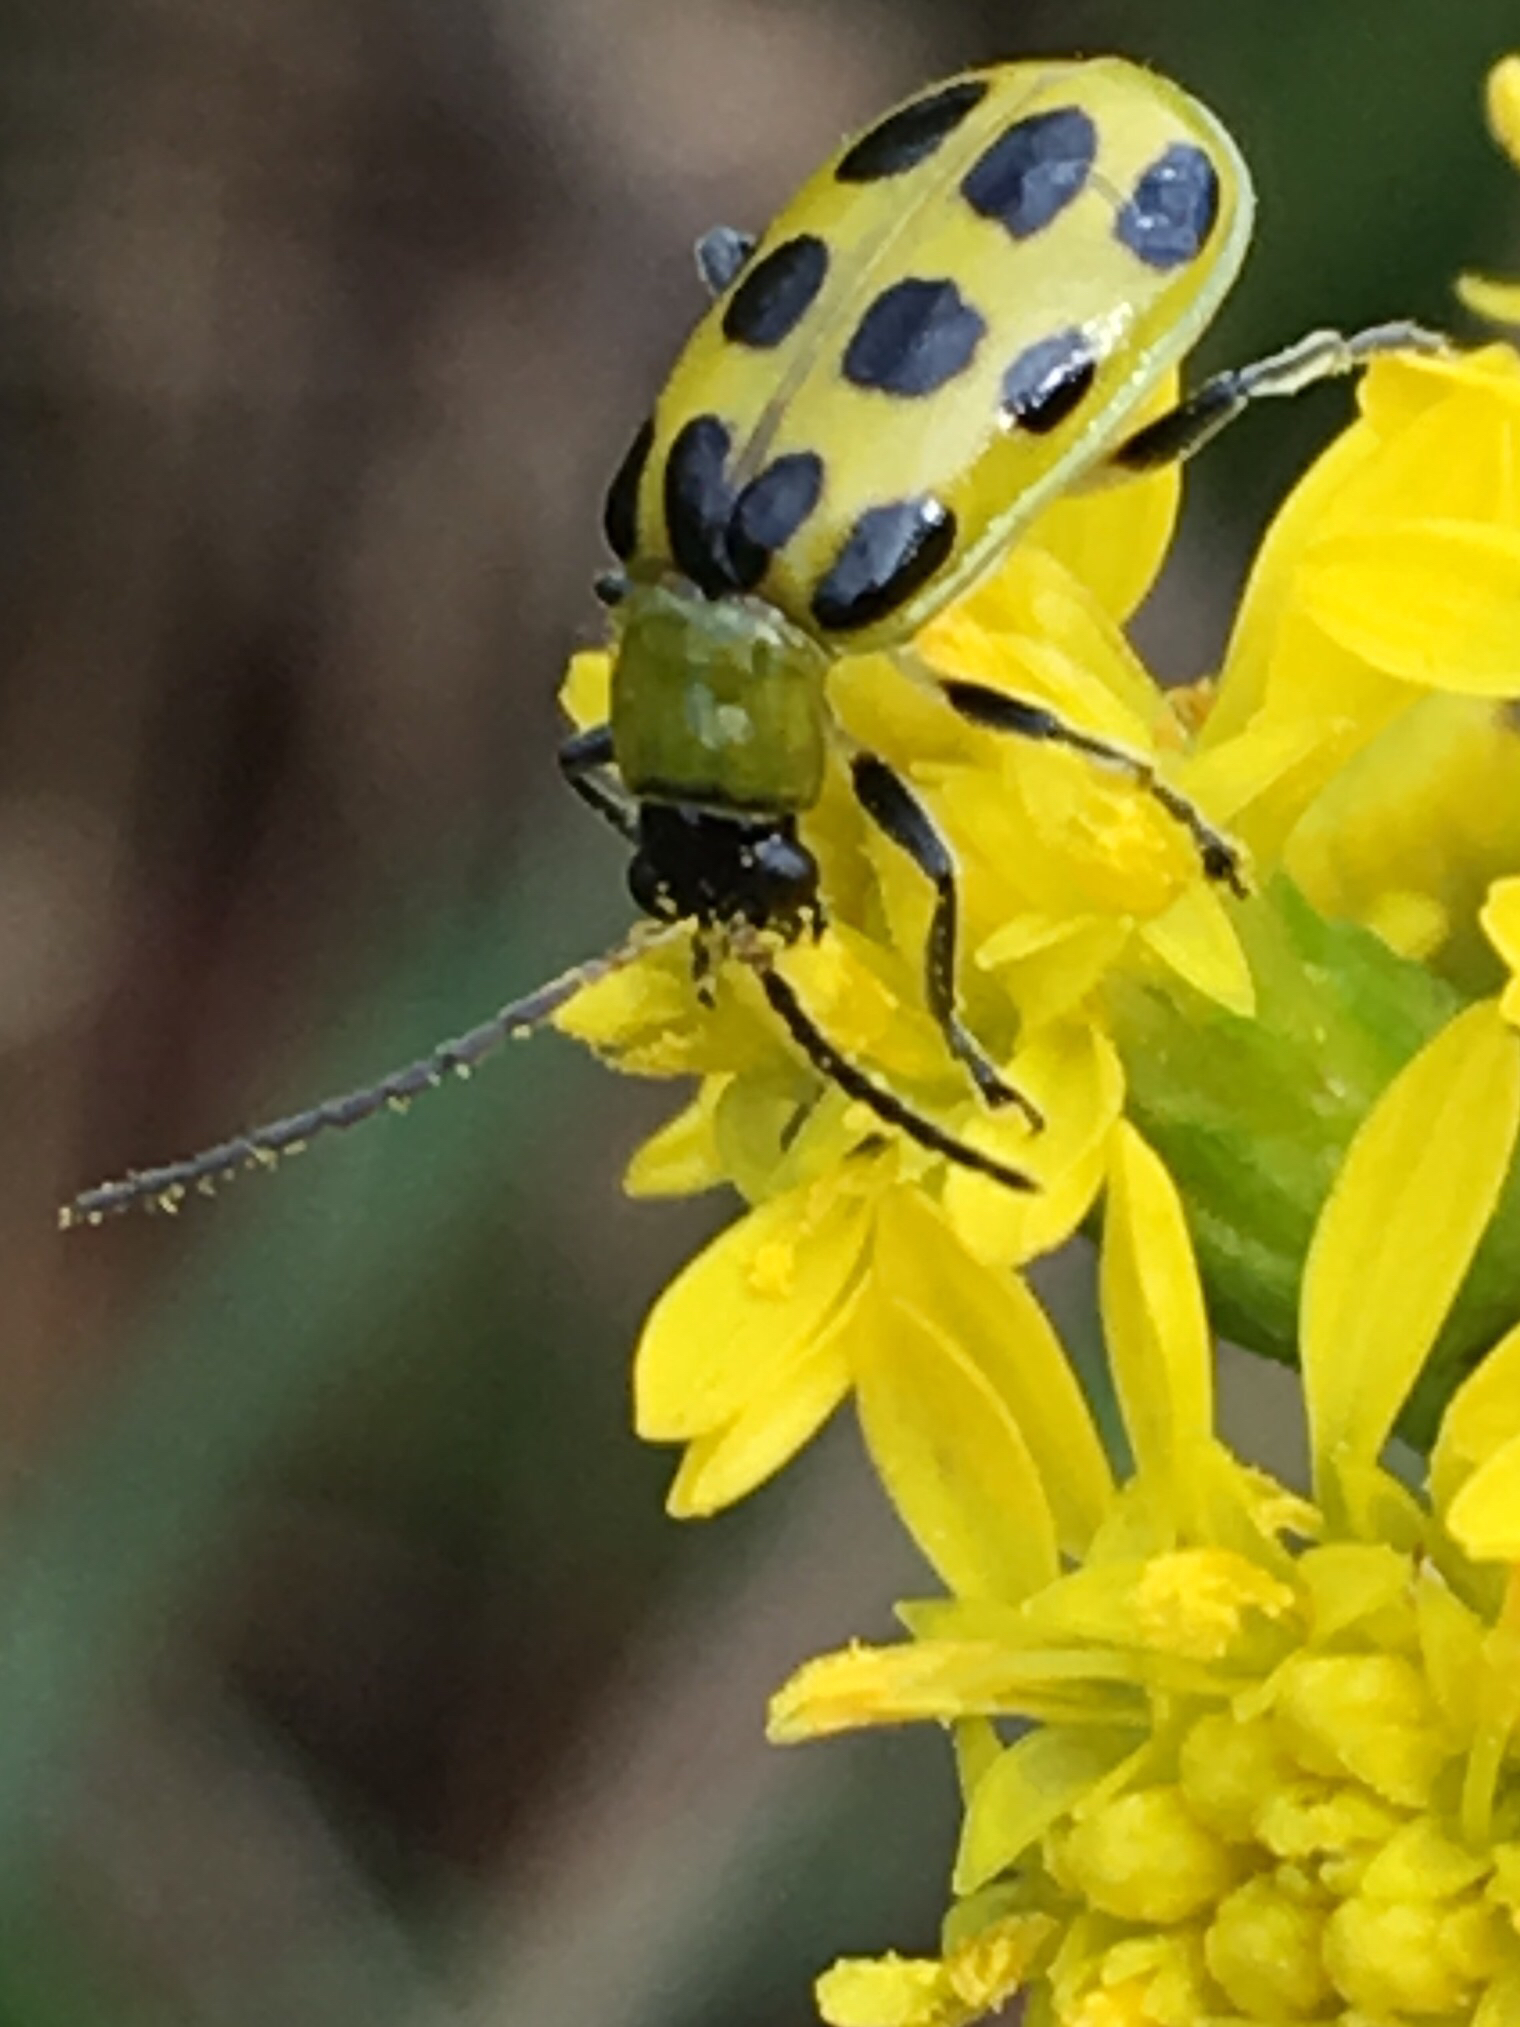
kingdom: Animalia
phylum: Arthropoda
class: Insecta
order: Coleoptera
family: Chrysomelidae
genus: Diabrotica
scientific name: Diabrotica undecimpunctata
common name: Spotted cucumber beetle
